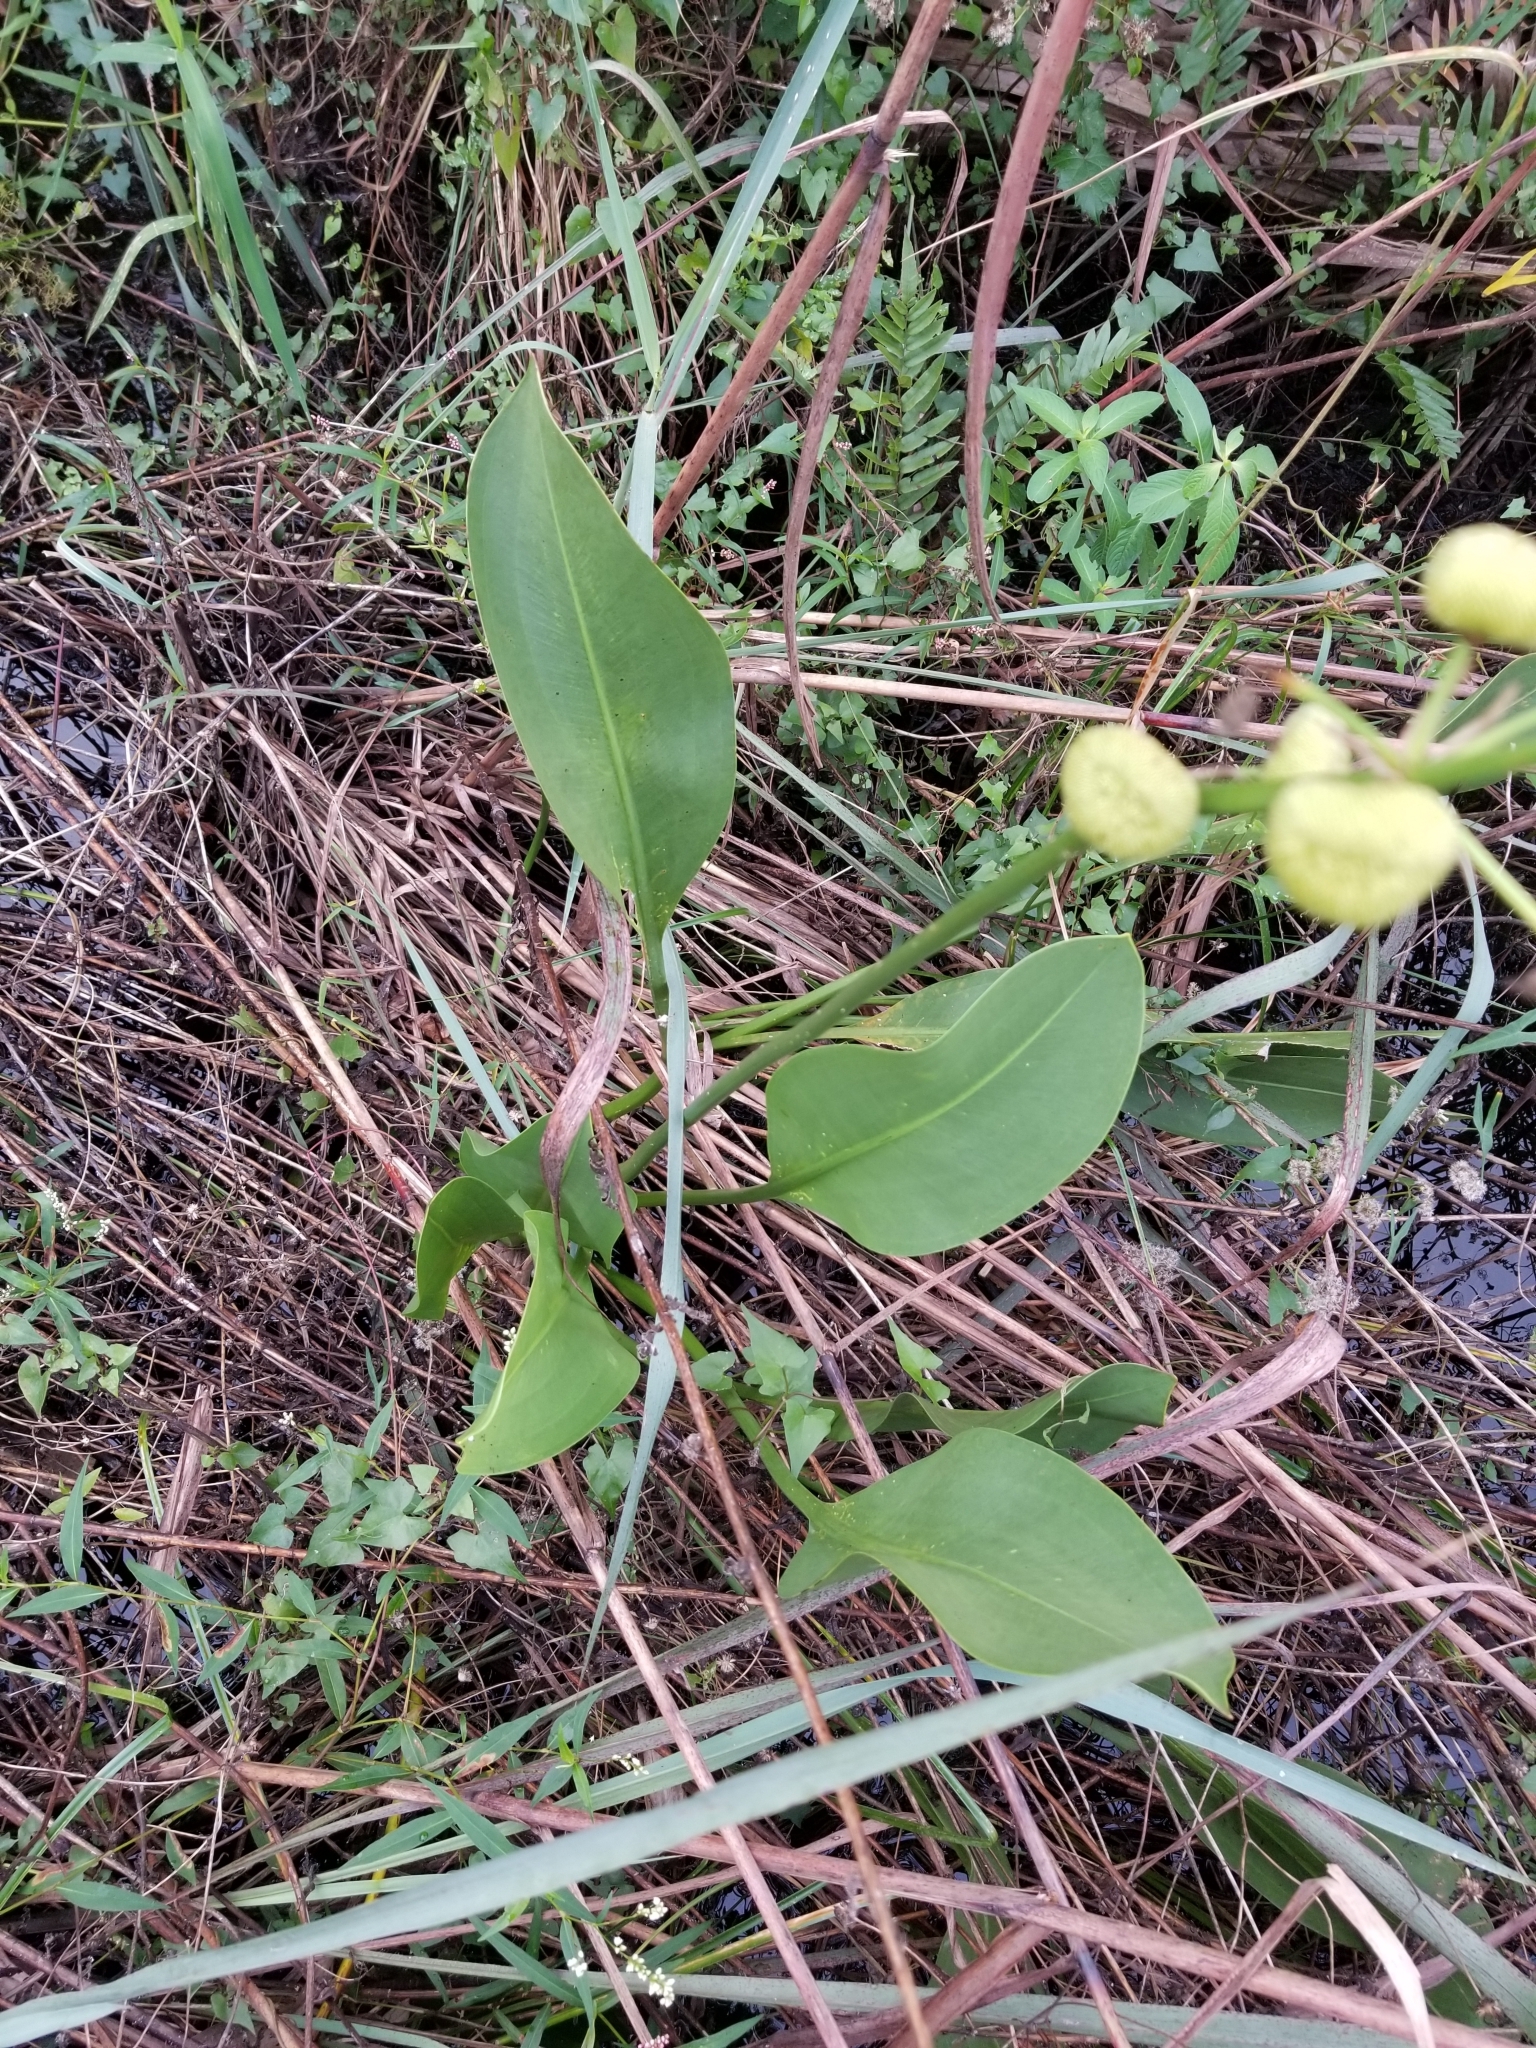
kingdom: Plantae
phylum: Tracheophyta
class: Liliopsida
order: Alismatales
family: Alismataceae
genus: Sagittaria
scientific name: Sagittaria lancifolia
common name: Lance-leaf arrowhead
